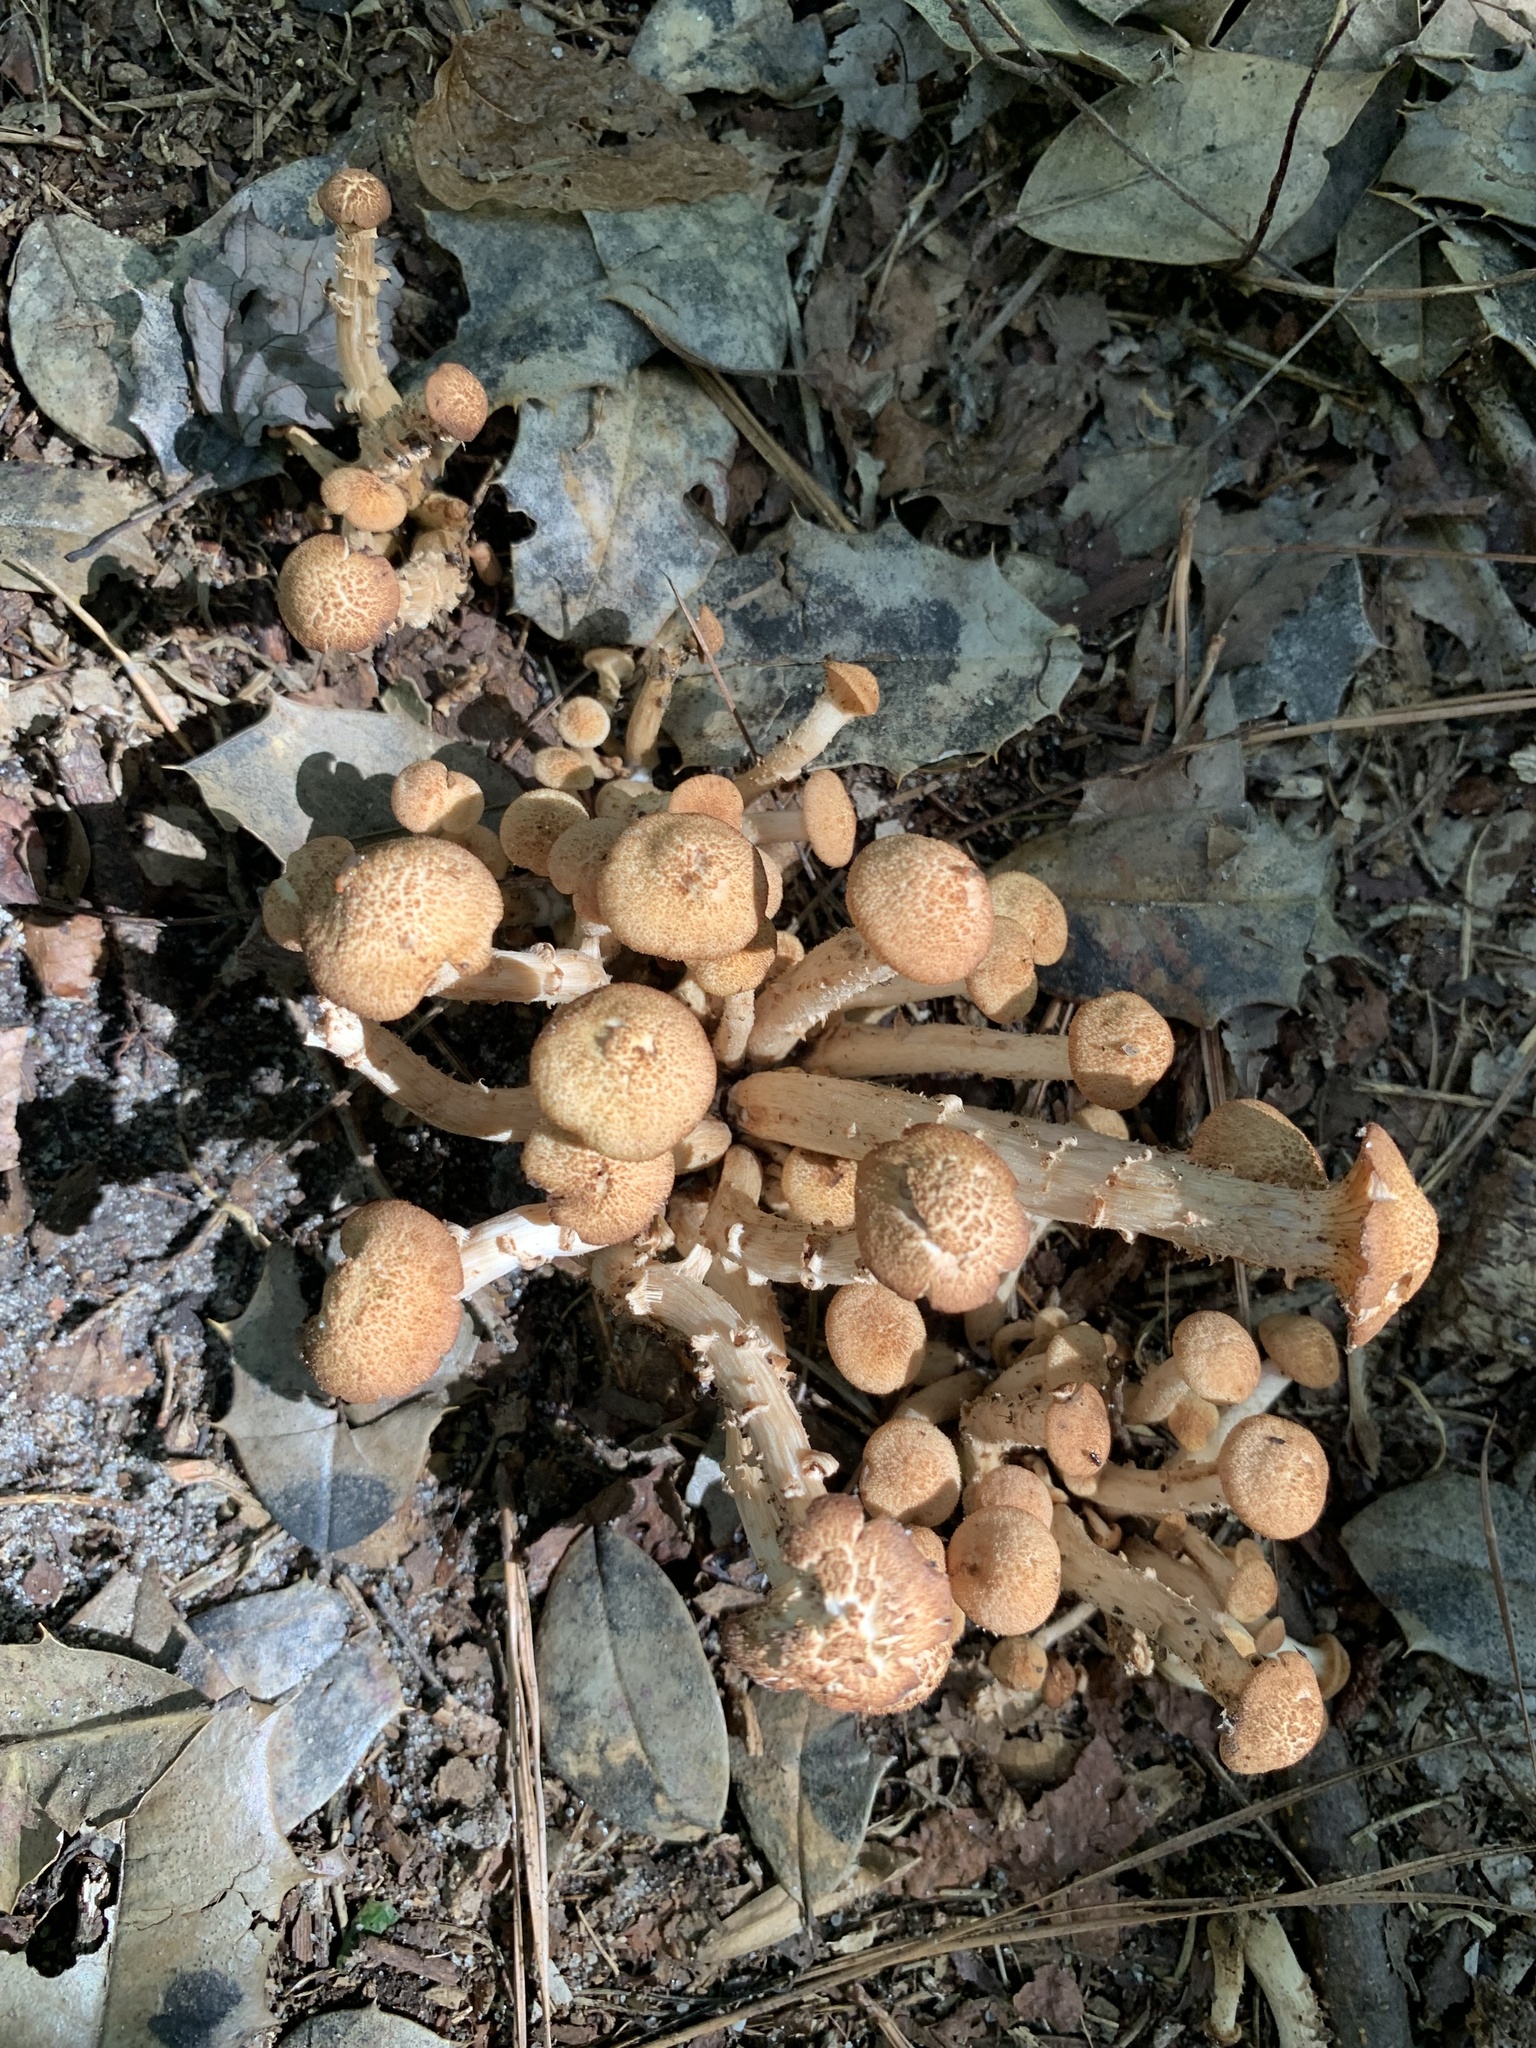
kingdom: Fungi
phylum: Basidiomycota
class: Agaricomycetes
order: Agaricales
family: Physalacriaceae
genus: Desarmillaria
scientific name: Desarmillaria caespitosa
